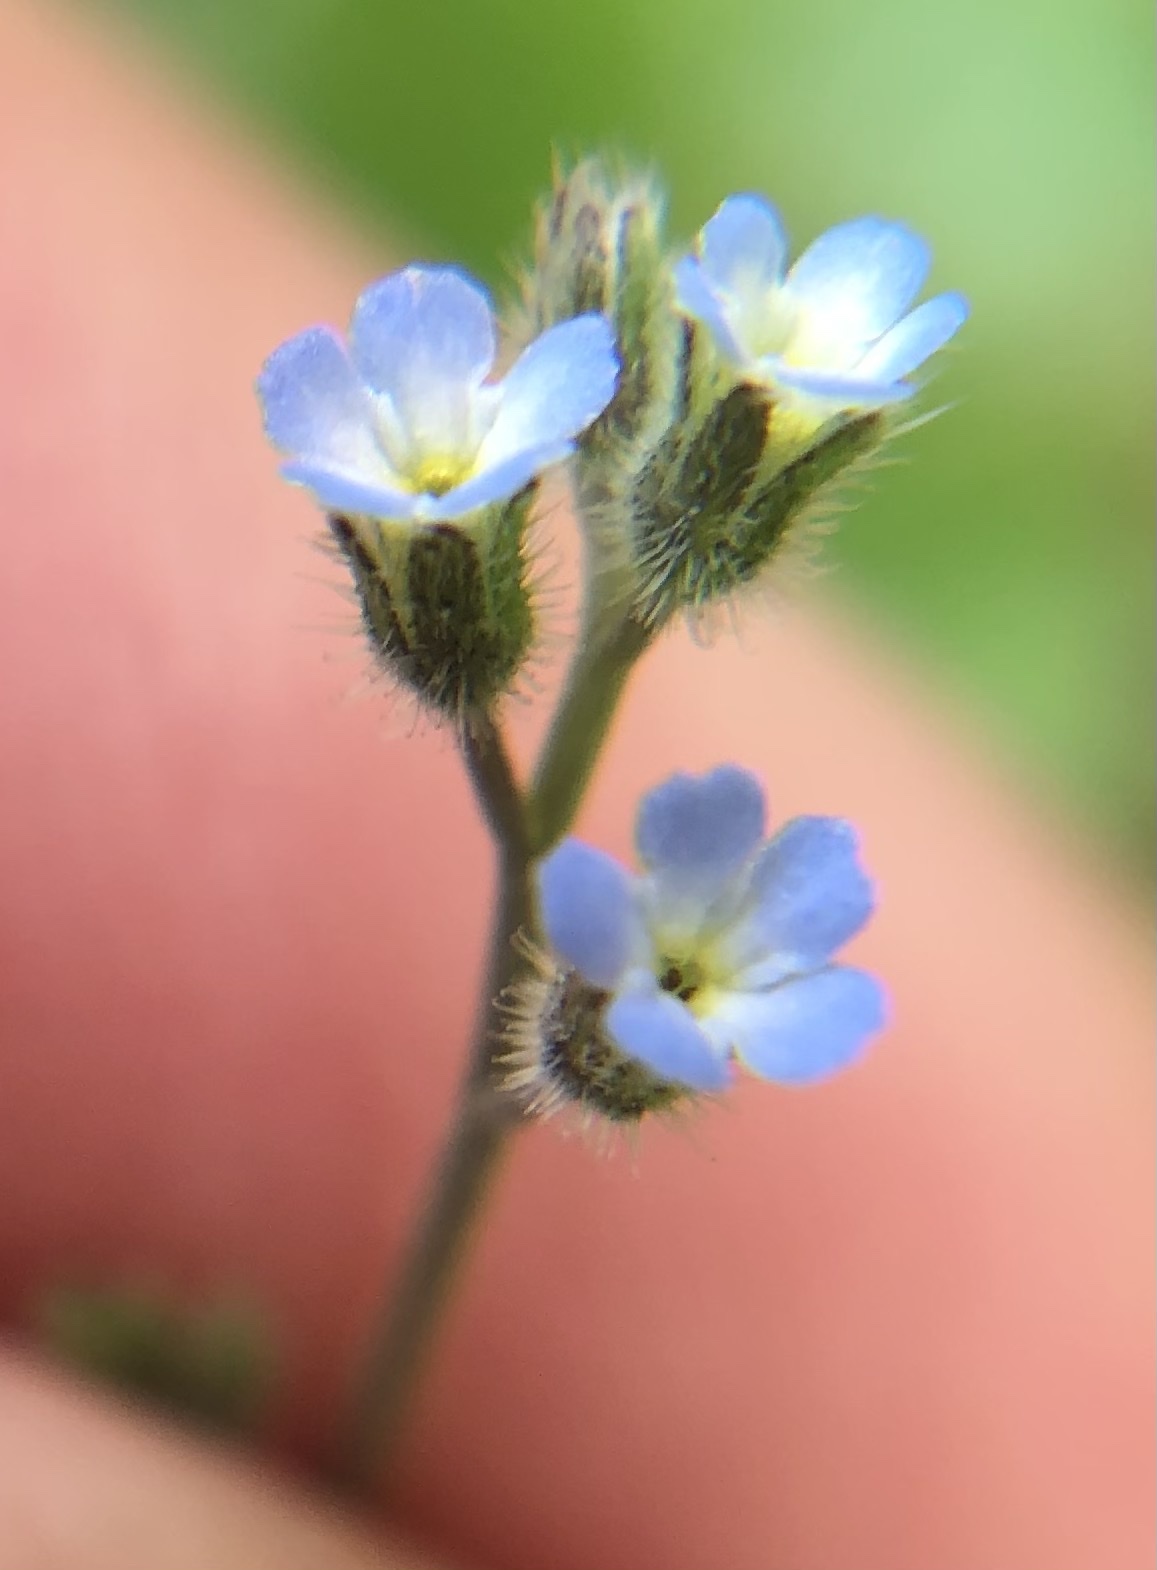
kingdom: Plantae
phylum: Tracheophyta
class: Magnoliopsida
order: Boraginales
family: Boraginaceae
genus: Myosotis
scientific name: Myosotis ramosissima
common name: Early forget-me-not
